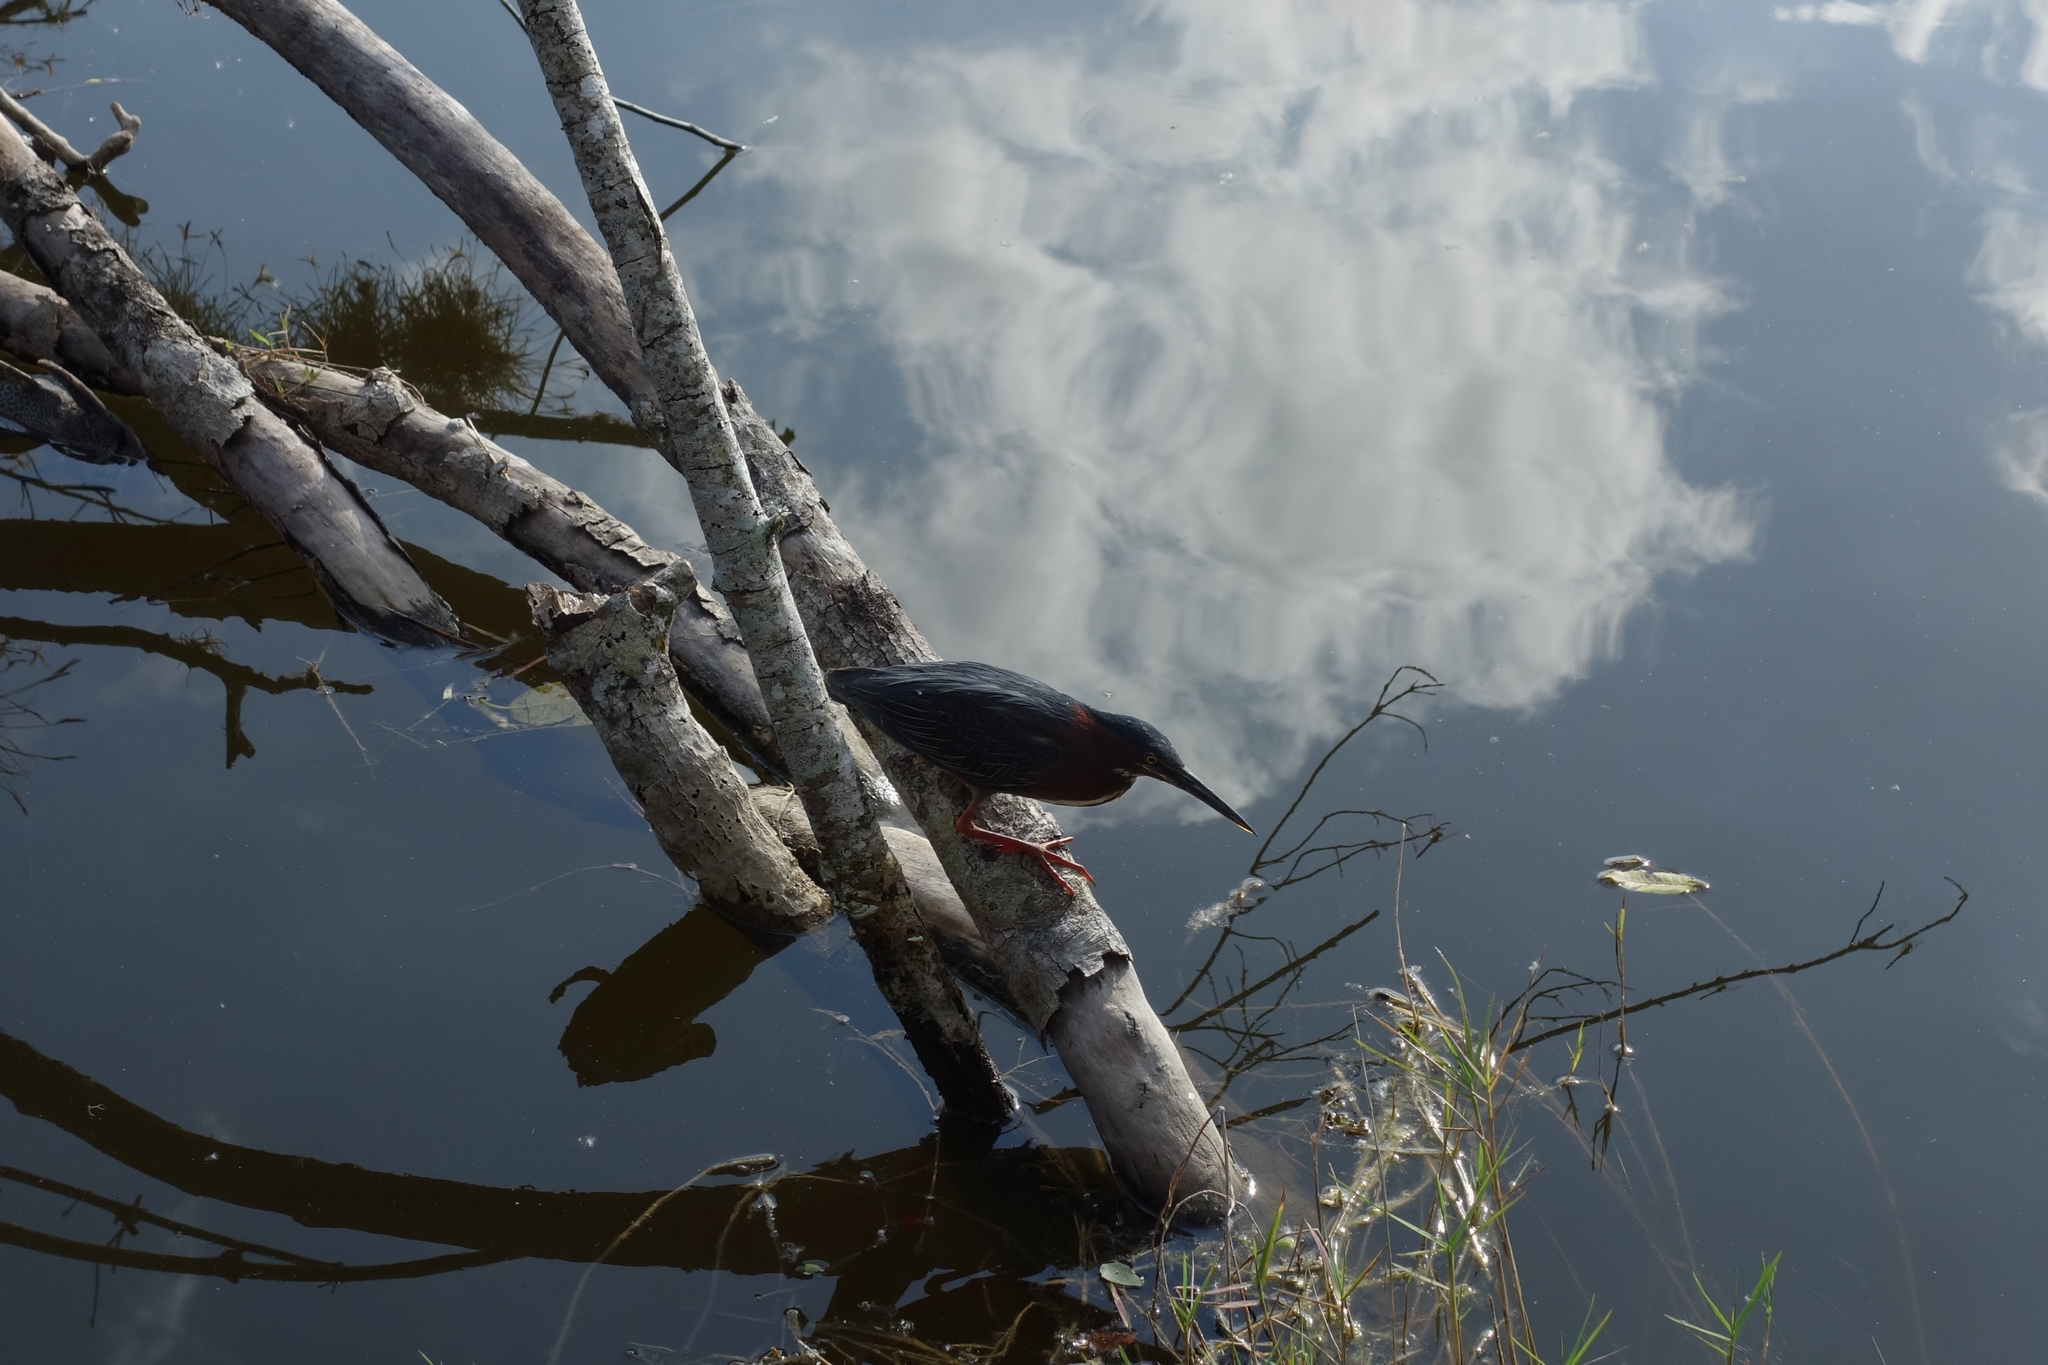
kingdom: Animalia
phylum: Chordata
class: Aves
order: Pelecaniformes
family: Ardeidae
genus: Butorides
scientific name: Butorides virescens
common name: Green heron
